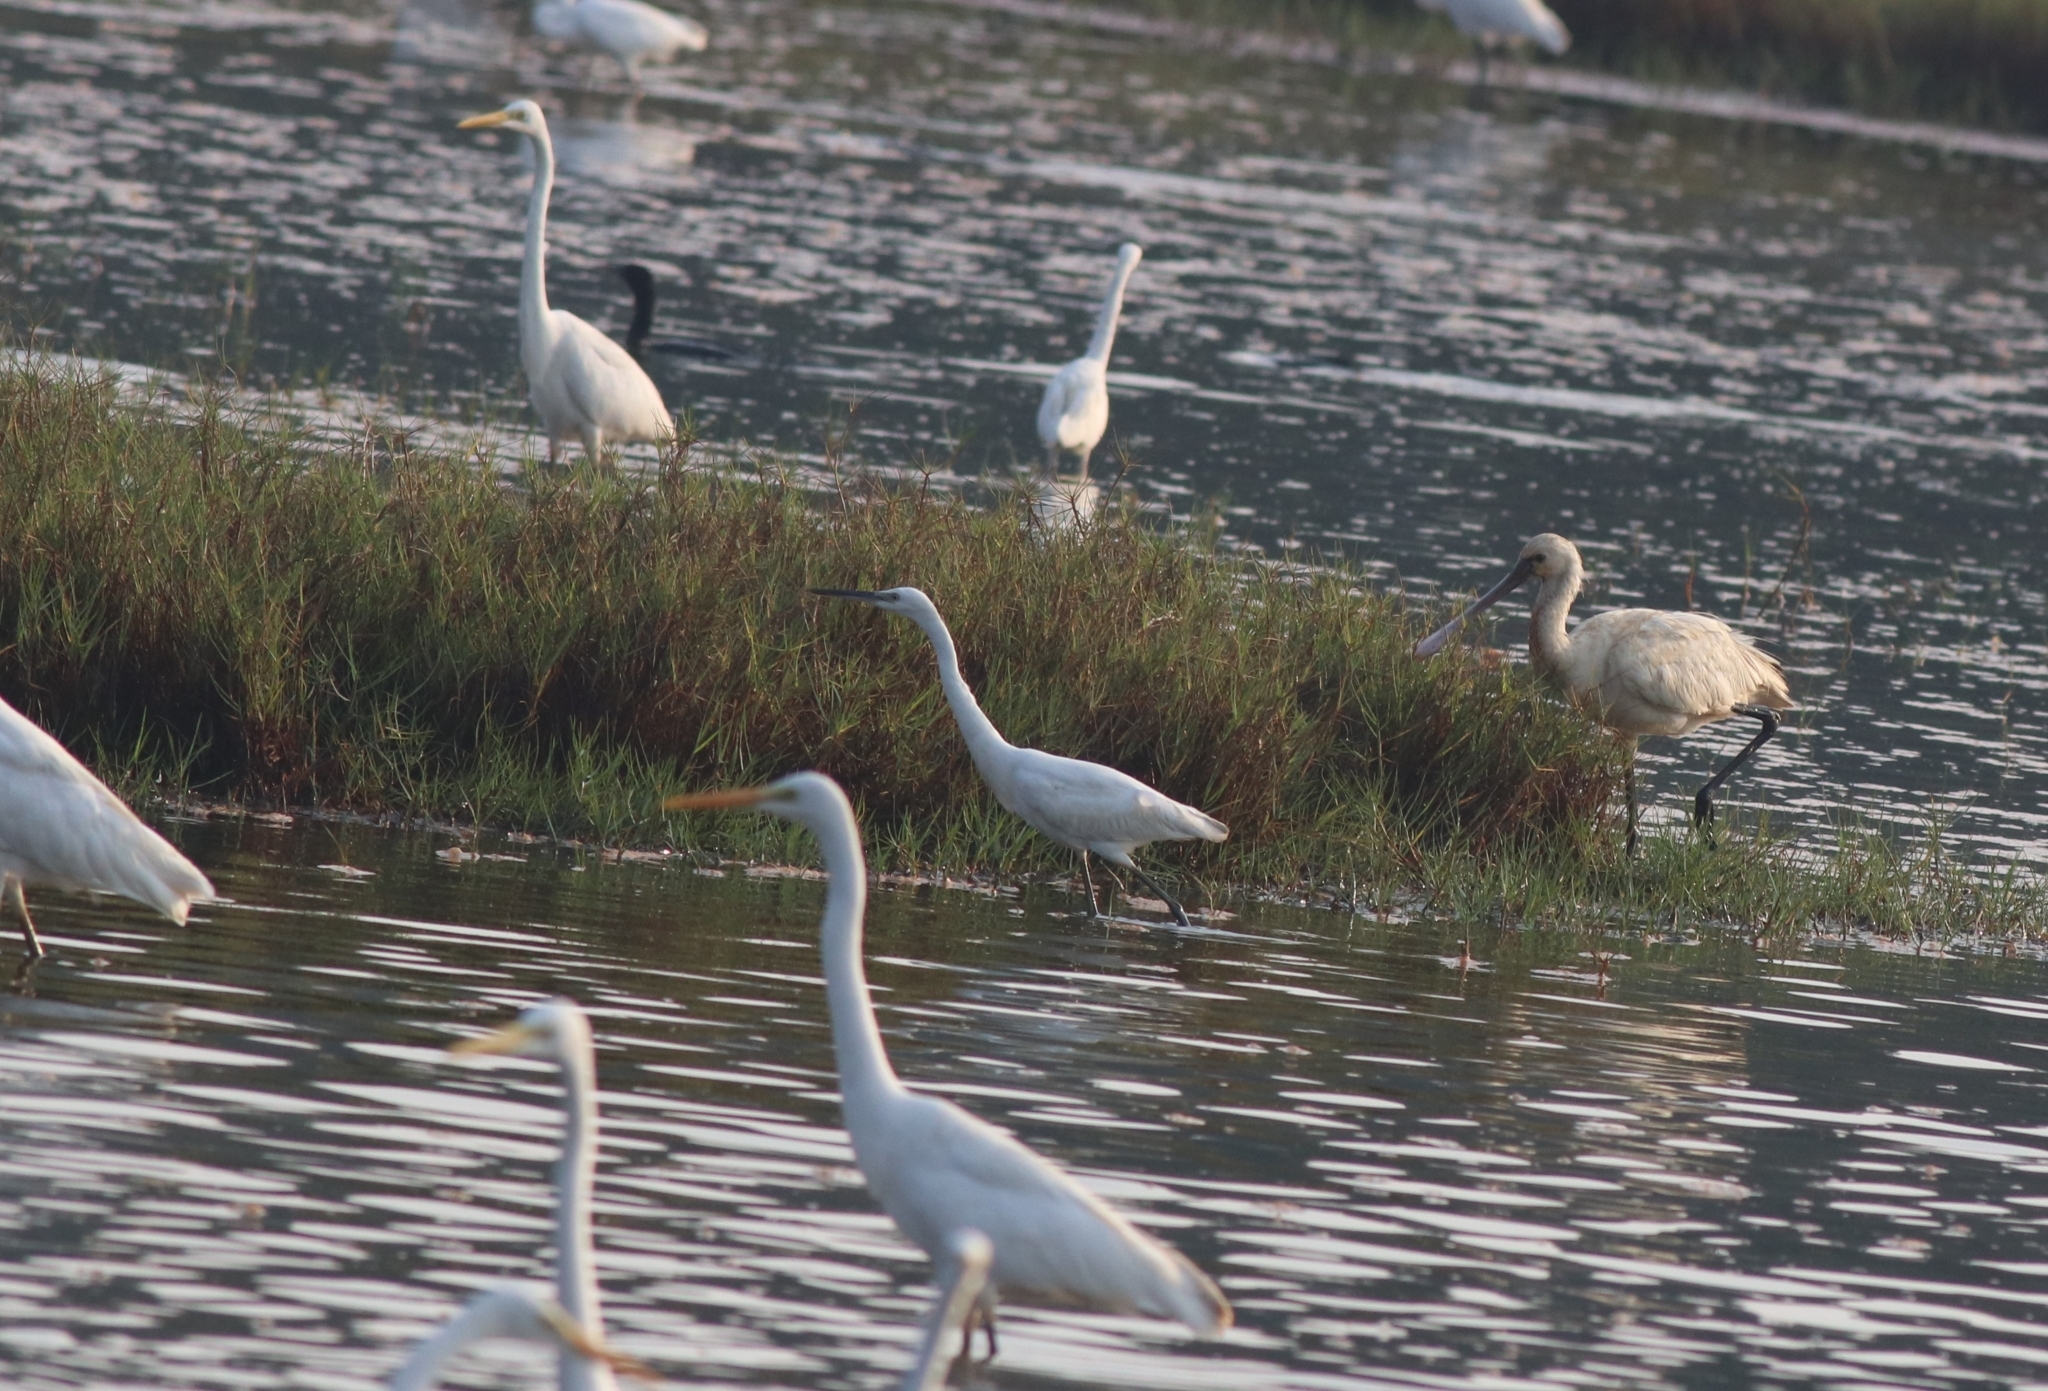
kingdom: Animalia
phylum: Chordata
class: Aves
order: Pelecaniformes
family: Ardeidae
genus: Ardea
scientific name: Ardea alba
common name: Great egret
